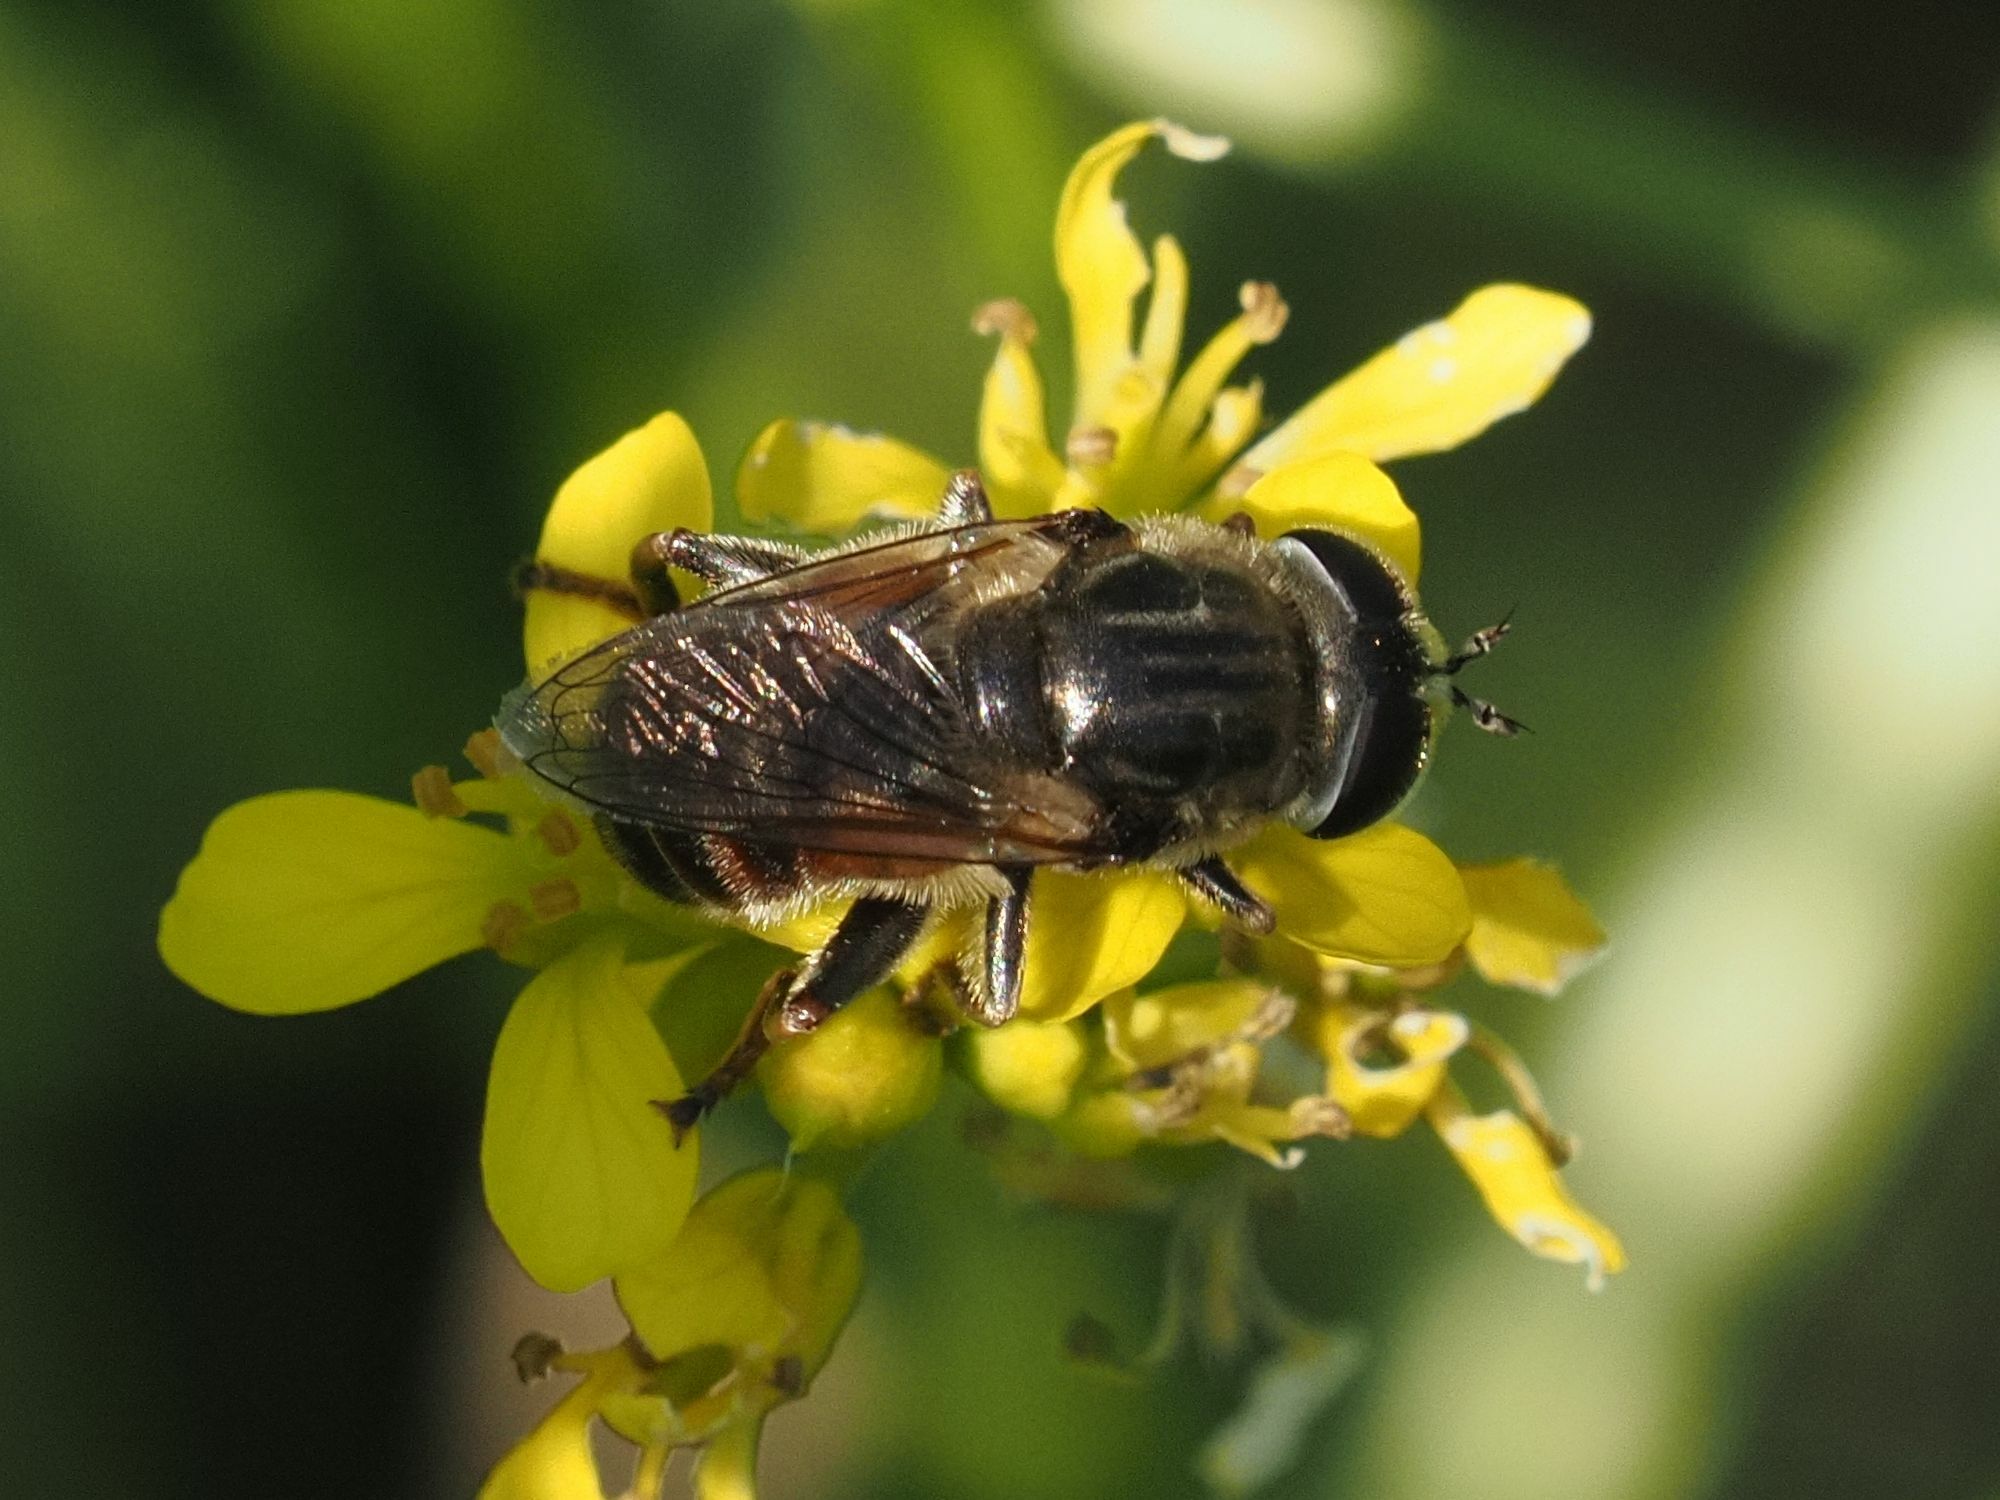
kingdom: Animalia
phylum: Arthropoda
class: Insecta
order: Diptera
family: Syrphidae
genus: Merodon
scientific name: Merodon albifrons
